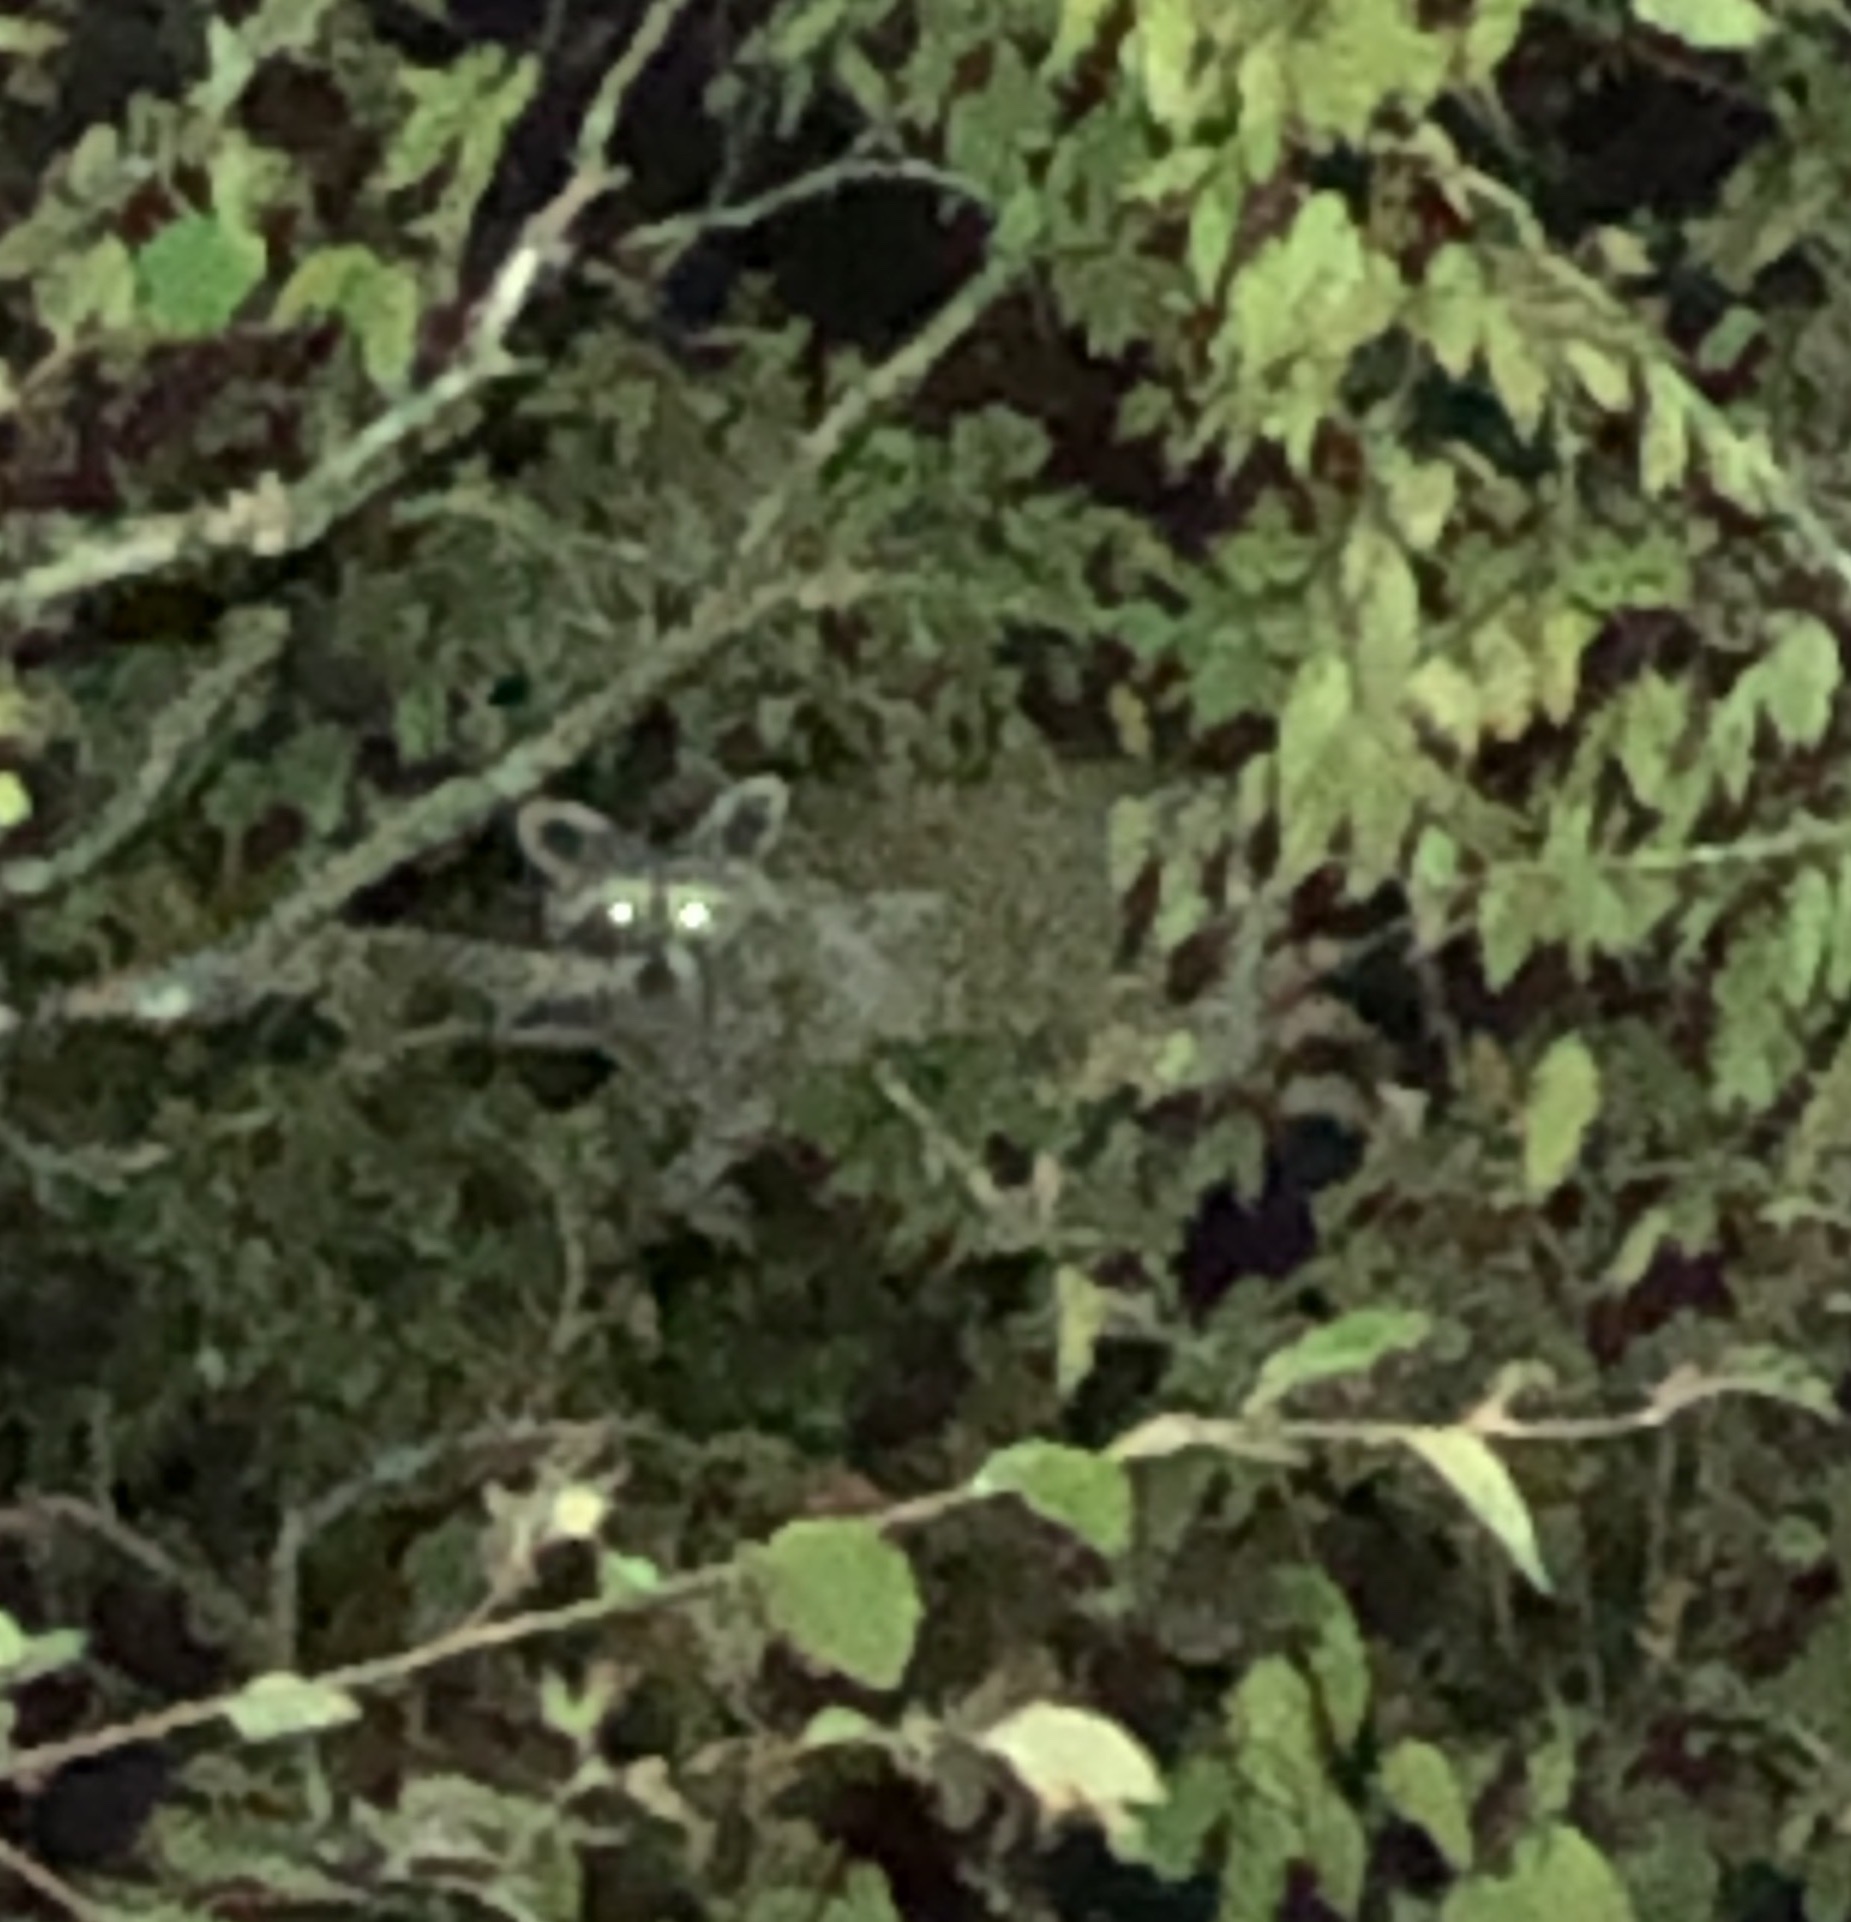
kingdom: Animalia
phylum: Chordata
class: Mammalia
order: Carnivora
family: Procyonidae
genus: Procyon
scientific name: Procyon lotor
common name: Raccoon
